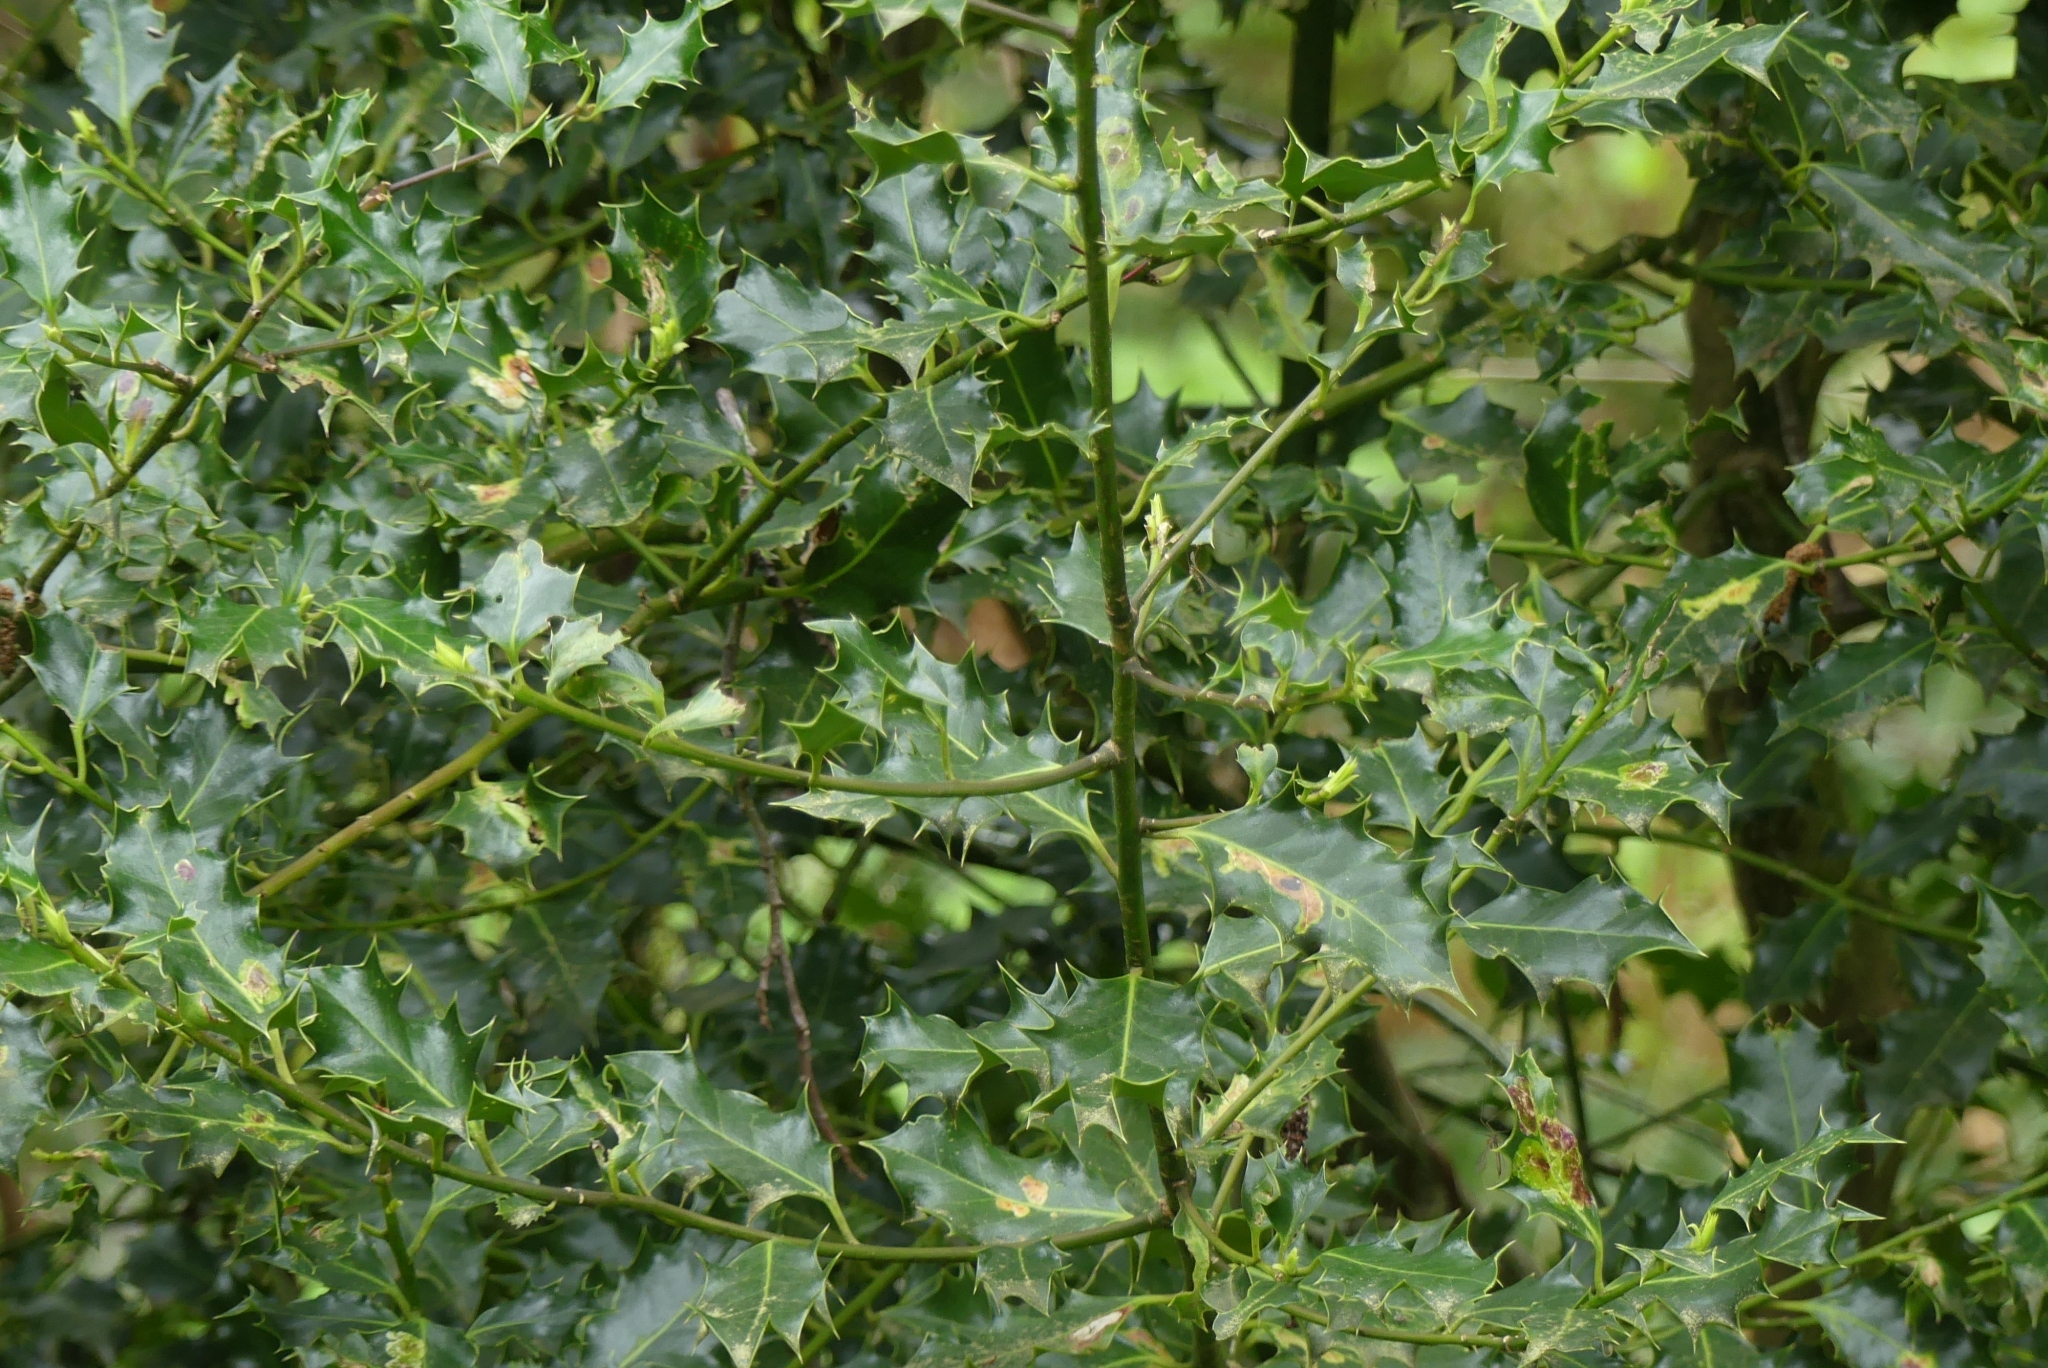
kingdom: Plantae
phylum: Tracheophyta
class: Magnoliopsida
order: Aquifoliales
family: Aquifoliaceae
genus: Ilex
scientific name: Ilex aquifolium
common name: English holly
